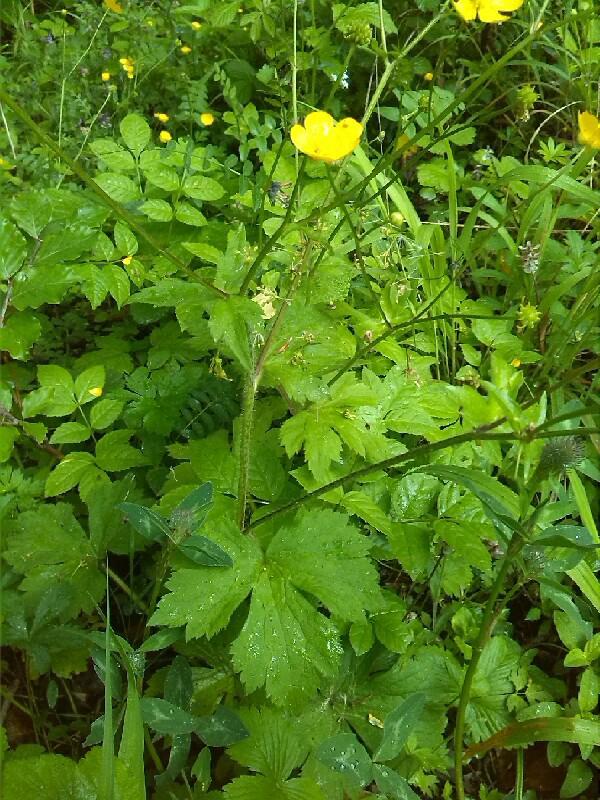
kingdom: Plantae
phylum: Tracheophyta
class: Magnoliopsida
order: Ranunculales
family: Ranunculaceae
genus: Ranunculus
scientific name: Ranunculus lanuginosus
